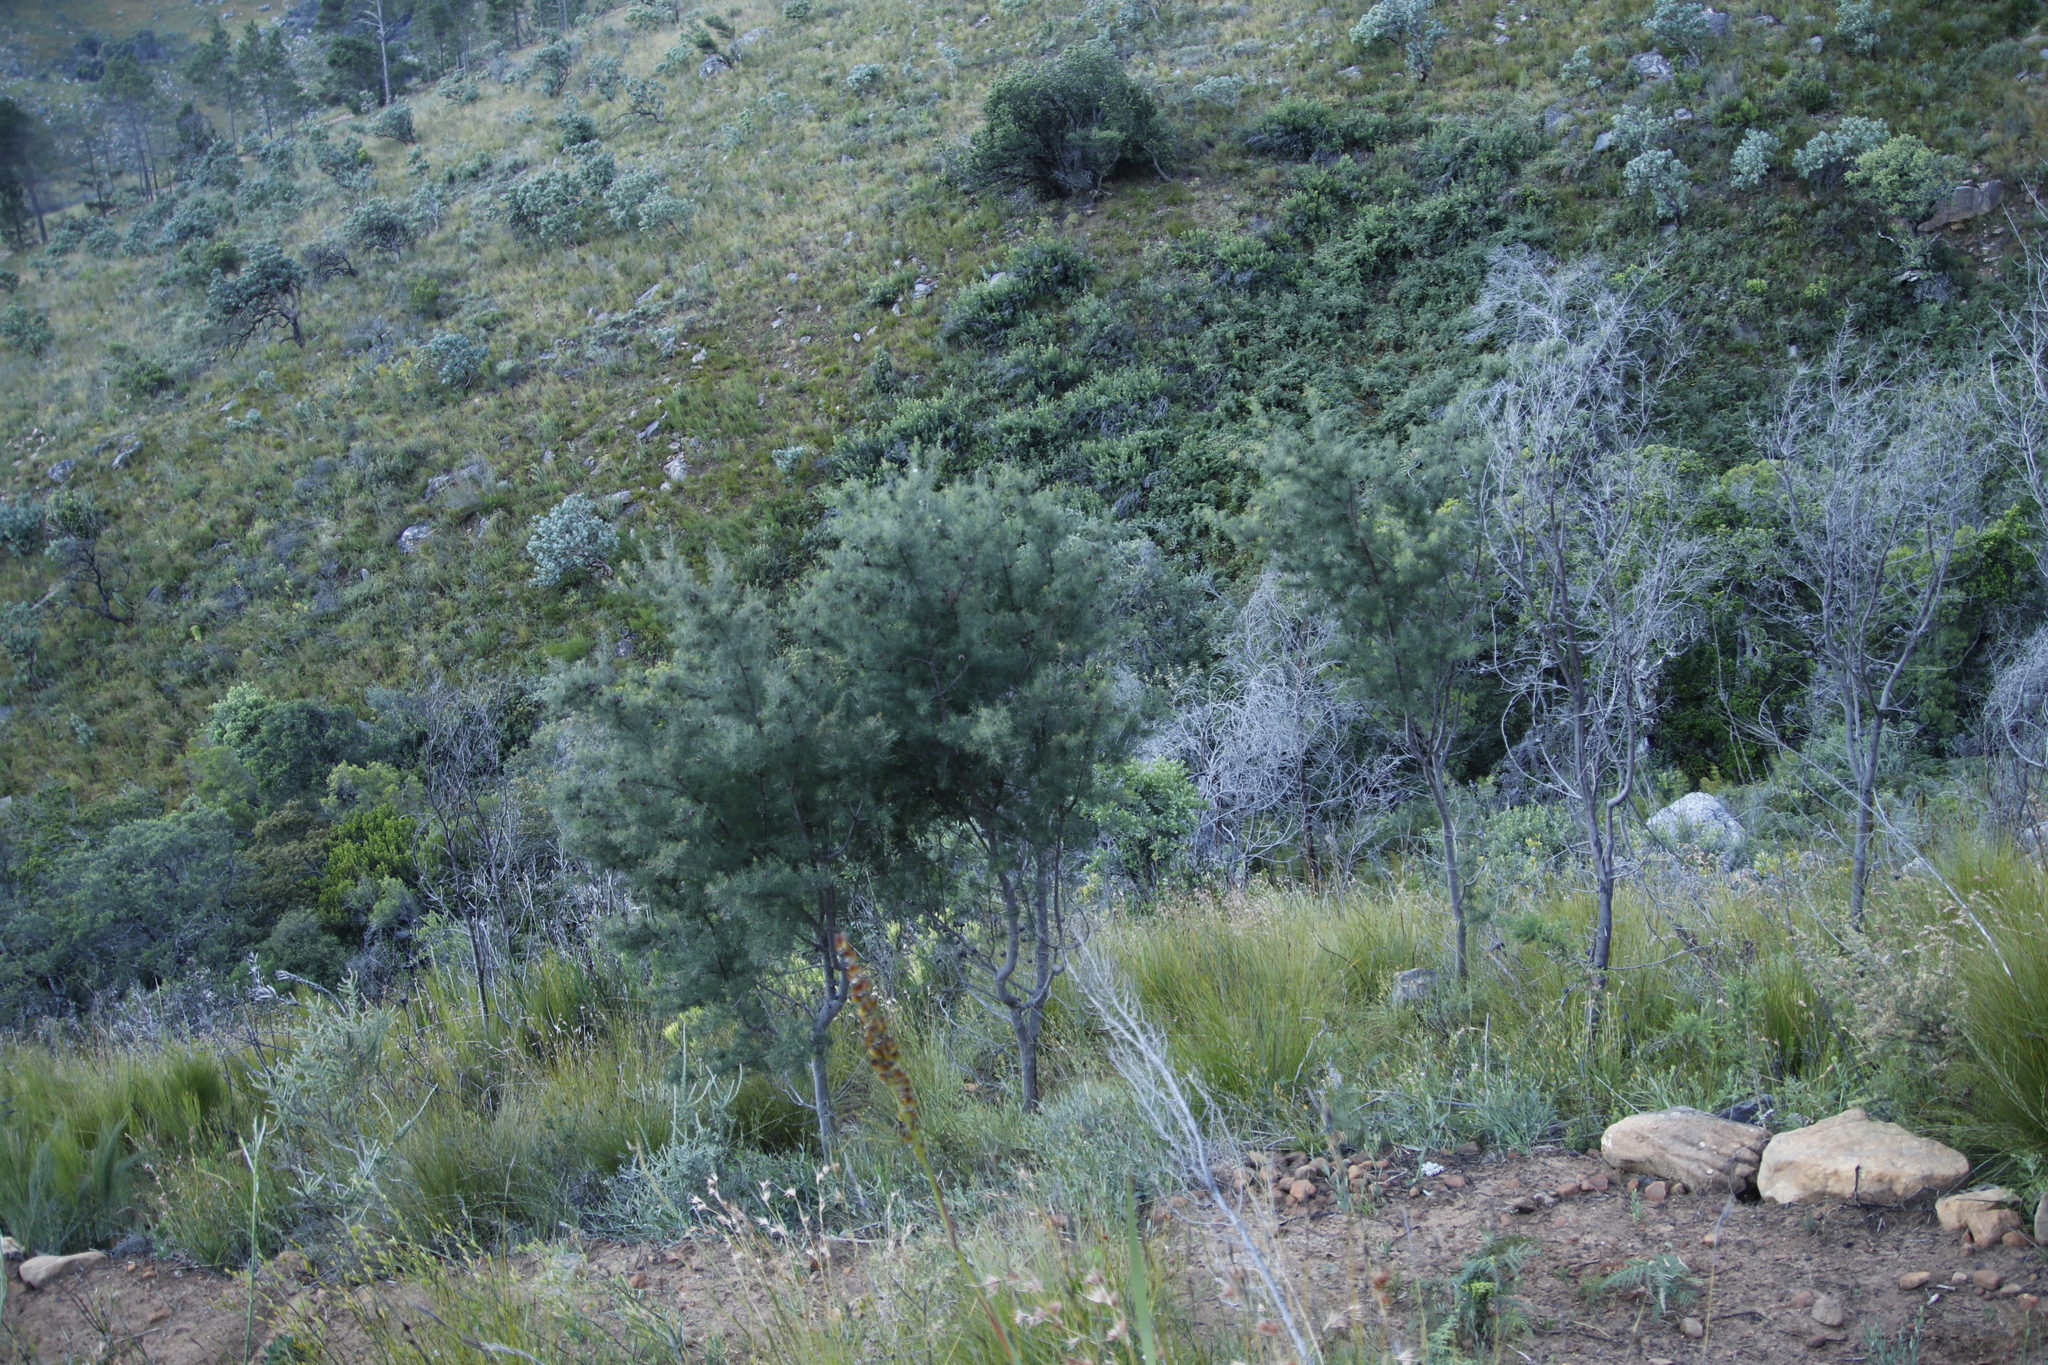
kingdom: Plantae
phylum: Tracheophyta
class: Magnoliopsida
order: Proteales
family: Proteaceae
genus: Hakea
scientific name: Hakea sericea
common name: Needle bush
